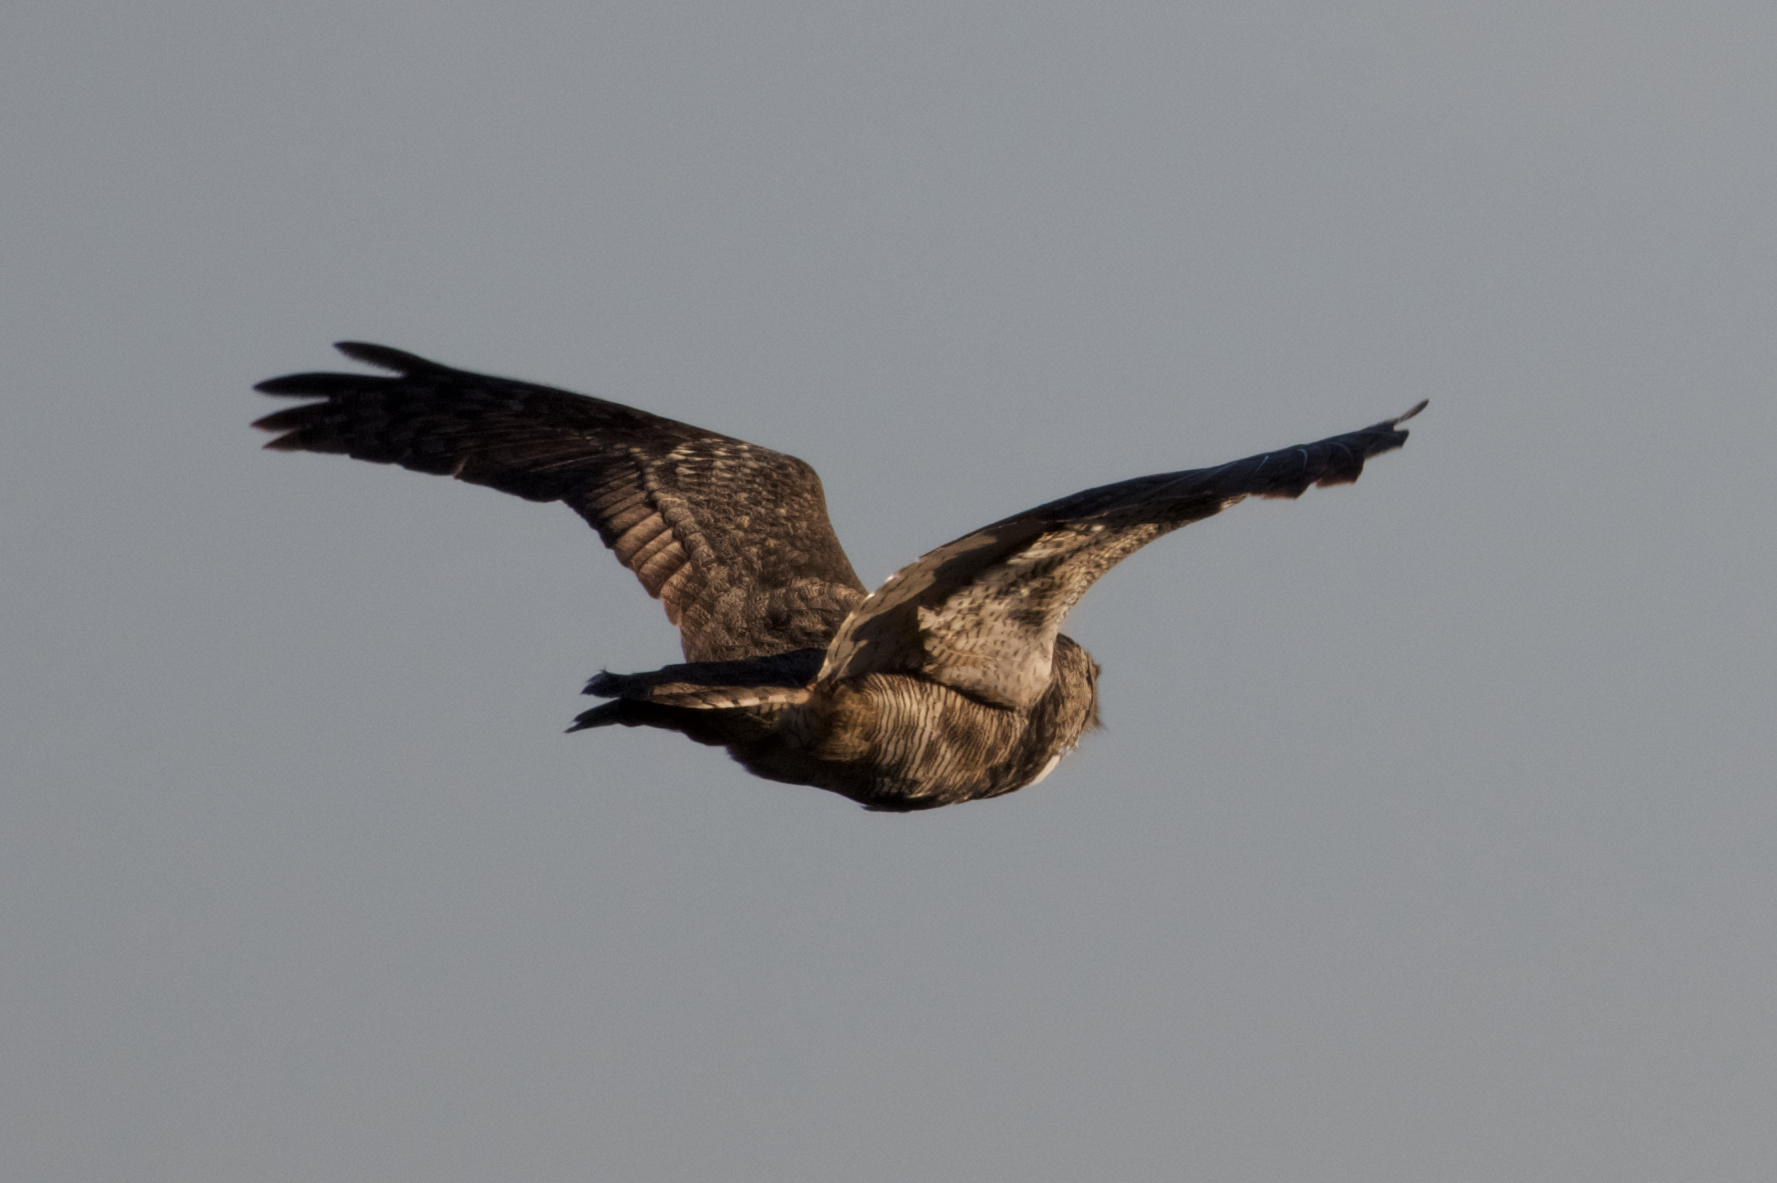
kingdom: Animalia
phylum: Chordata
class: Aves
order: Strigiformes
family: Strigidae
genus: Bubo
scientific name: Bubo virginianus
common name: Great horned owl
